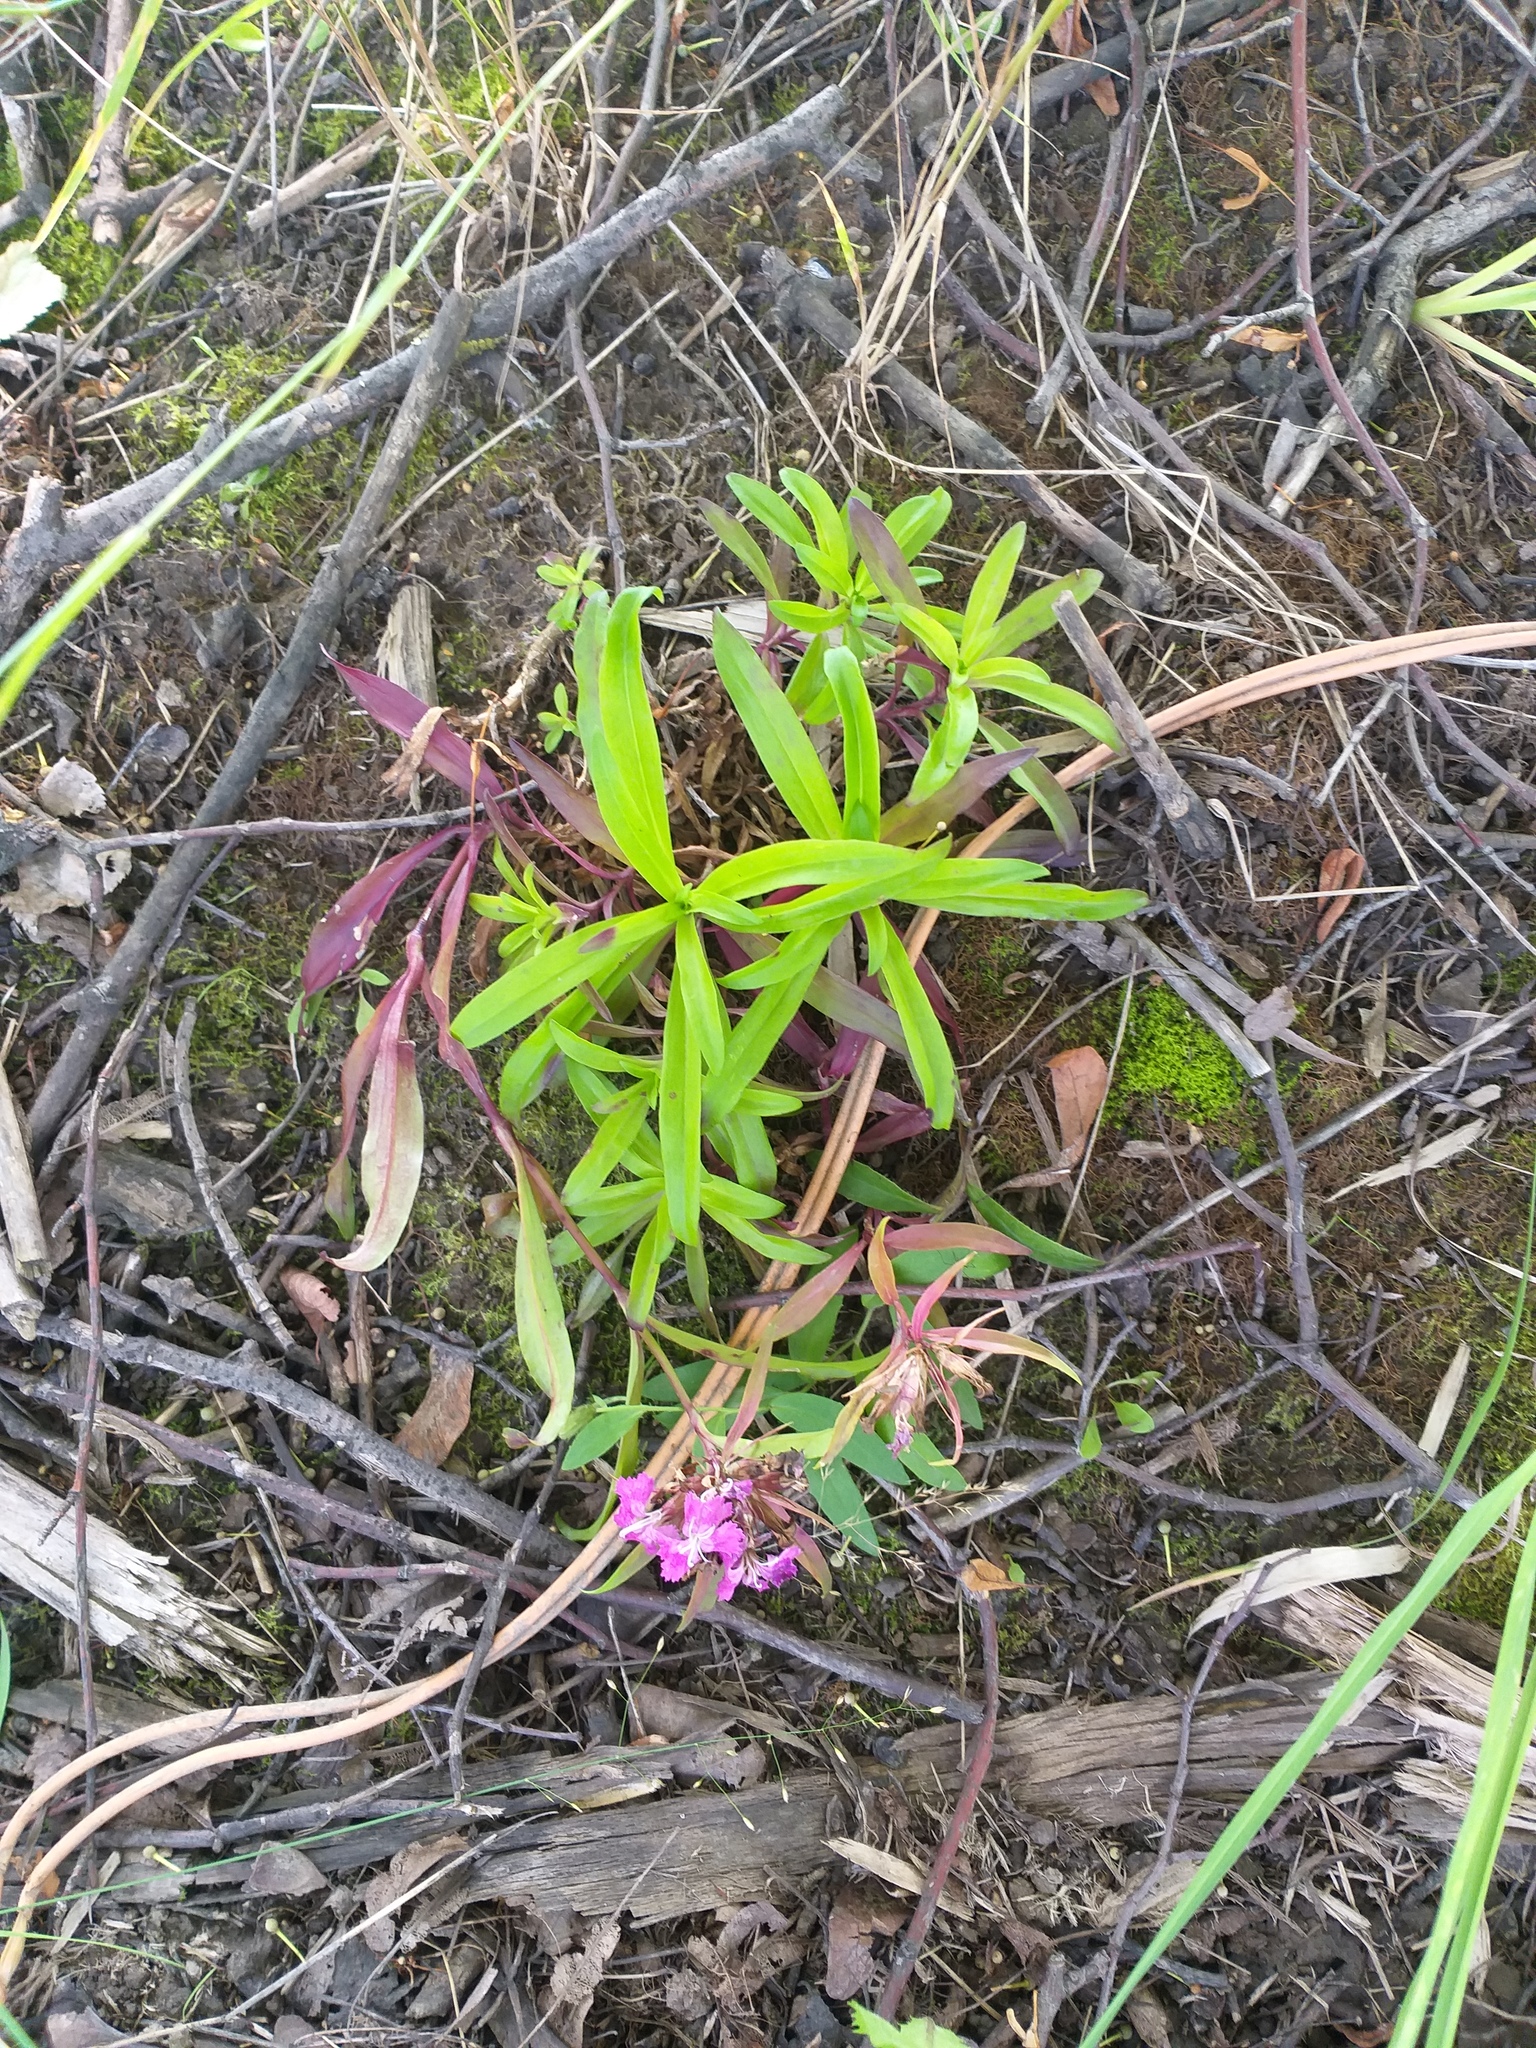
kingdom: Plantae
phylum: Tracheophyta
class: Magnoliopsida
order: Caryophyllales
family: Caryophyllaceae
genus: Dianthus
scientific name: Dianthus barbatus
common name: Sweet-william
